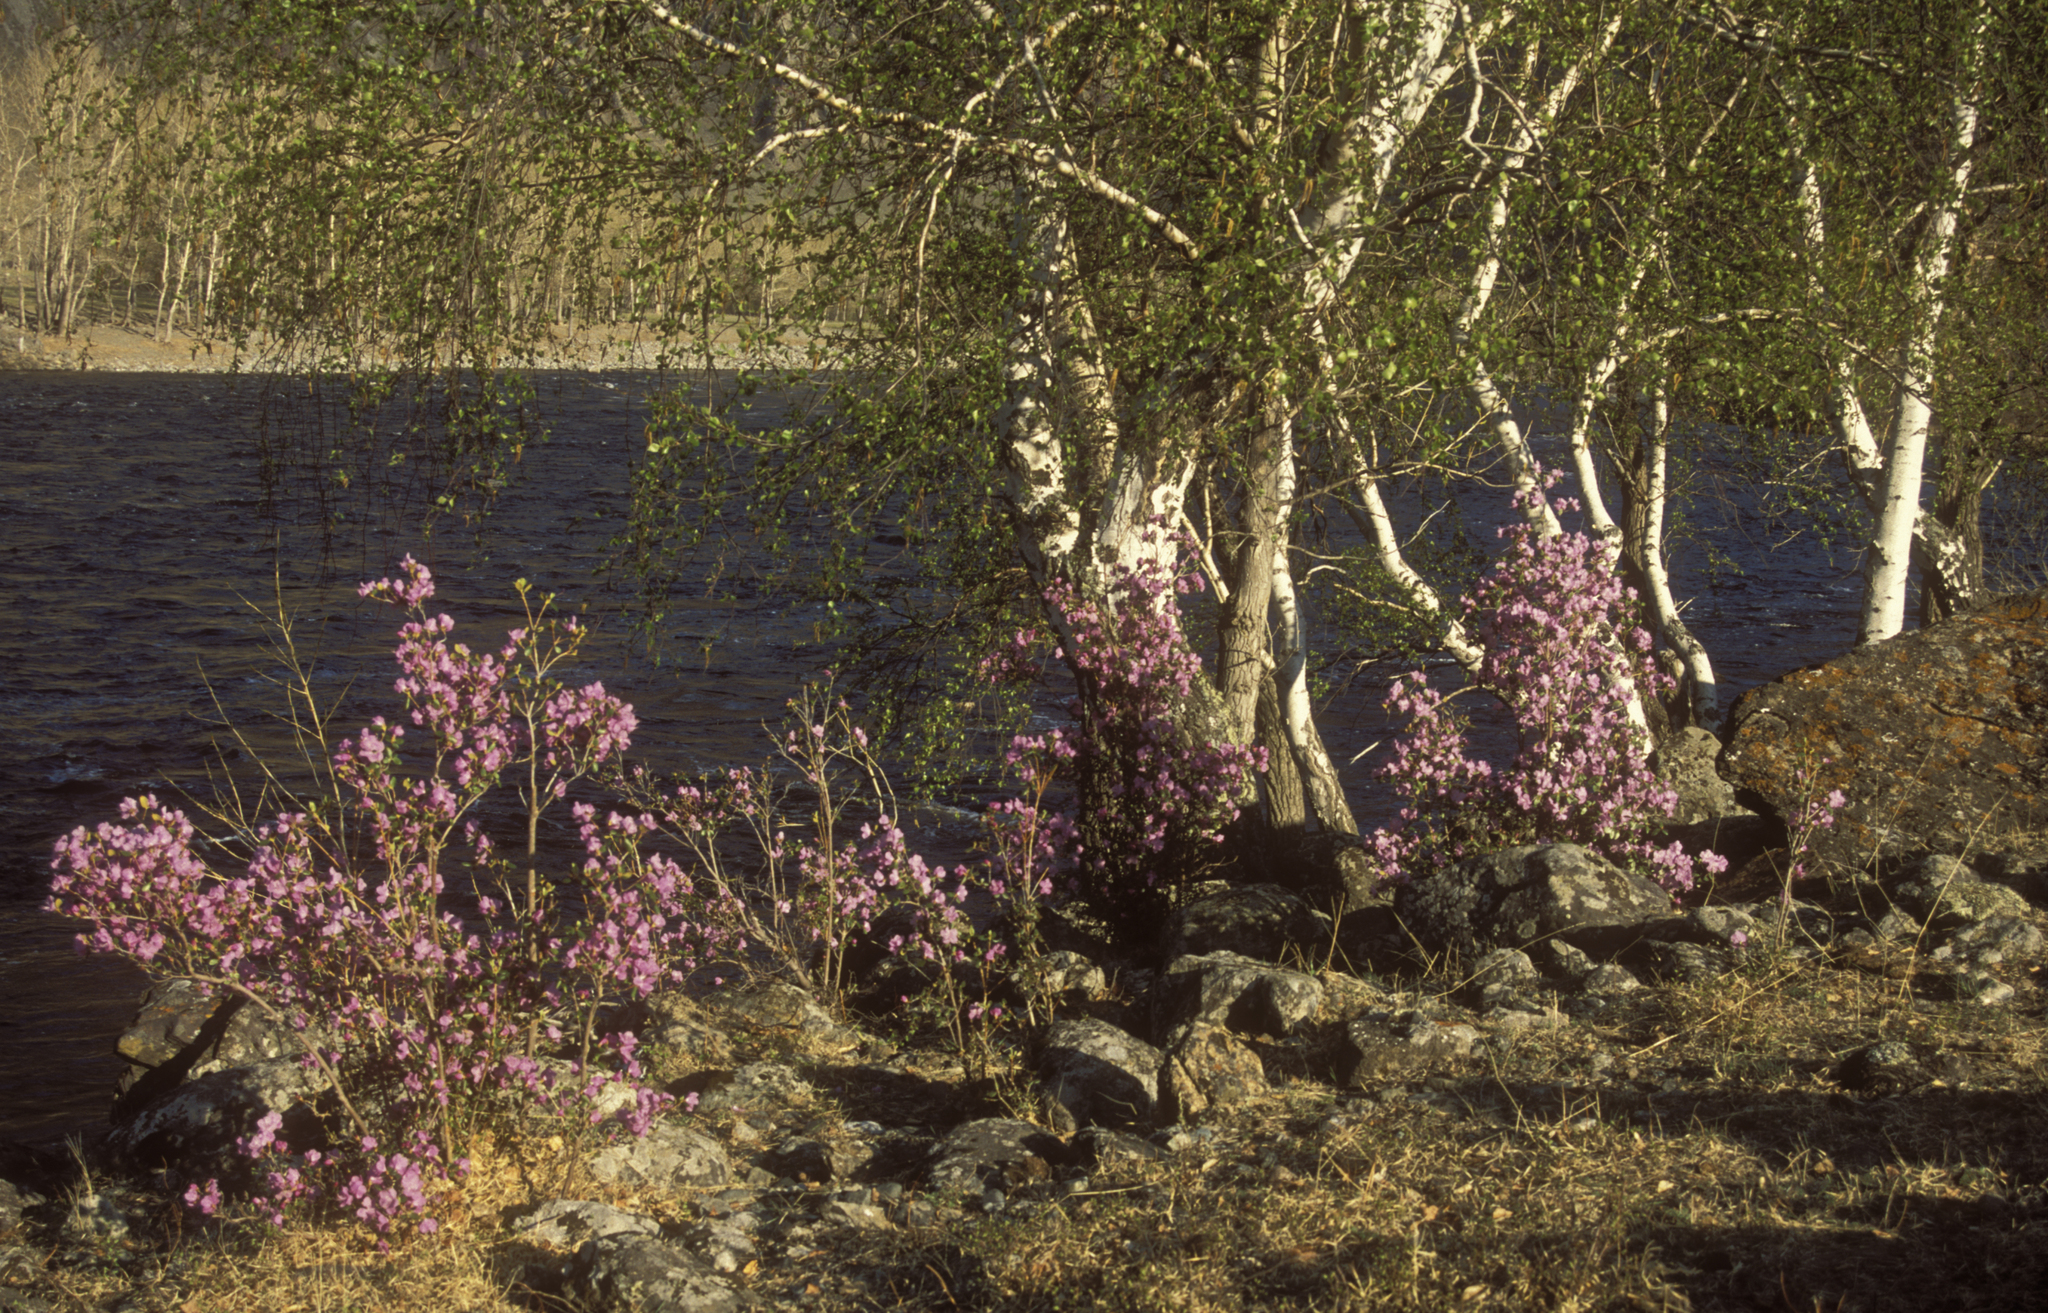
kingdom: Plantae
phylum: Tracheophyta
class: Magnoliopsida
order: Ericales
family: Ericaceae
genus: Rhododendron
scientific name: Rhododendron dauricum
